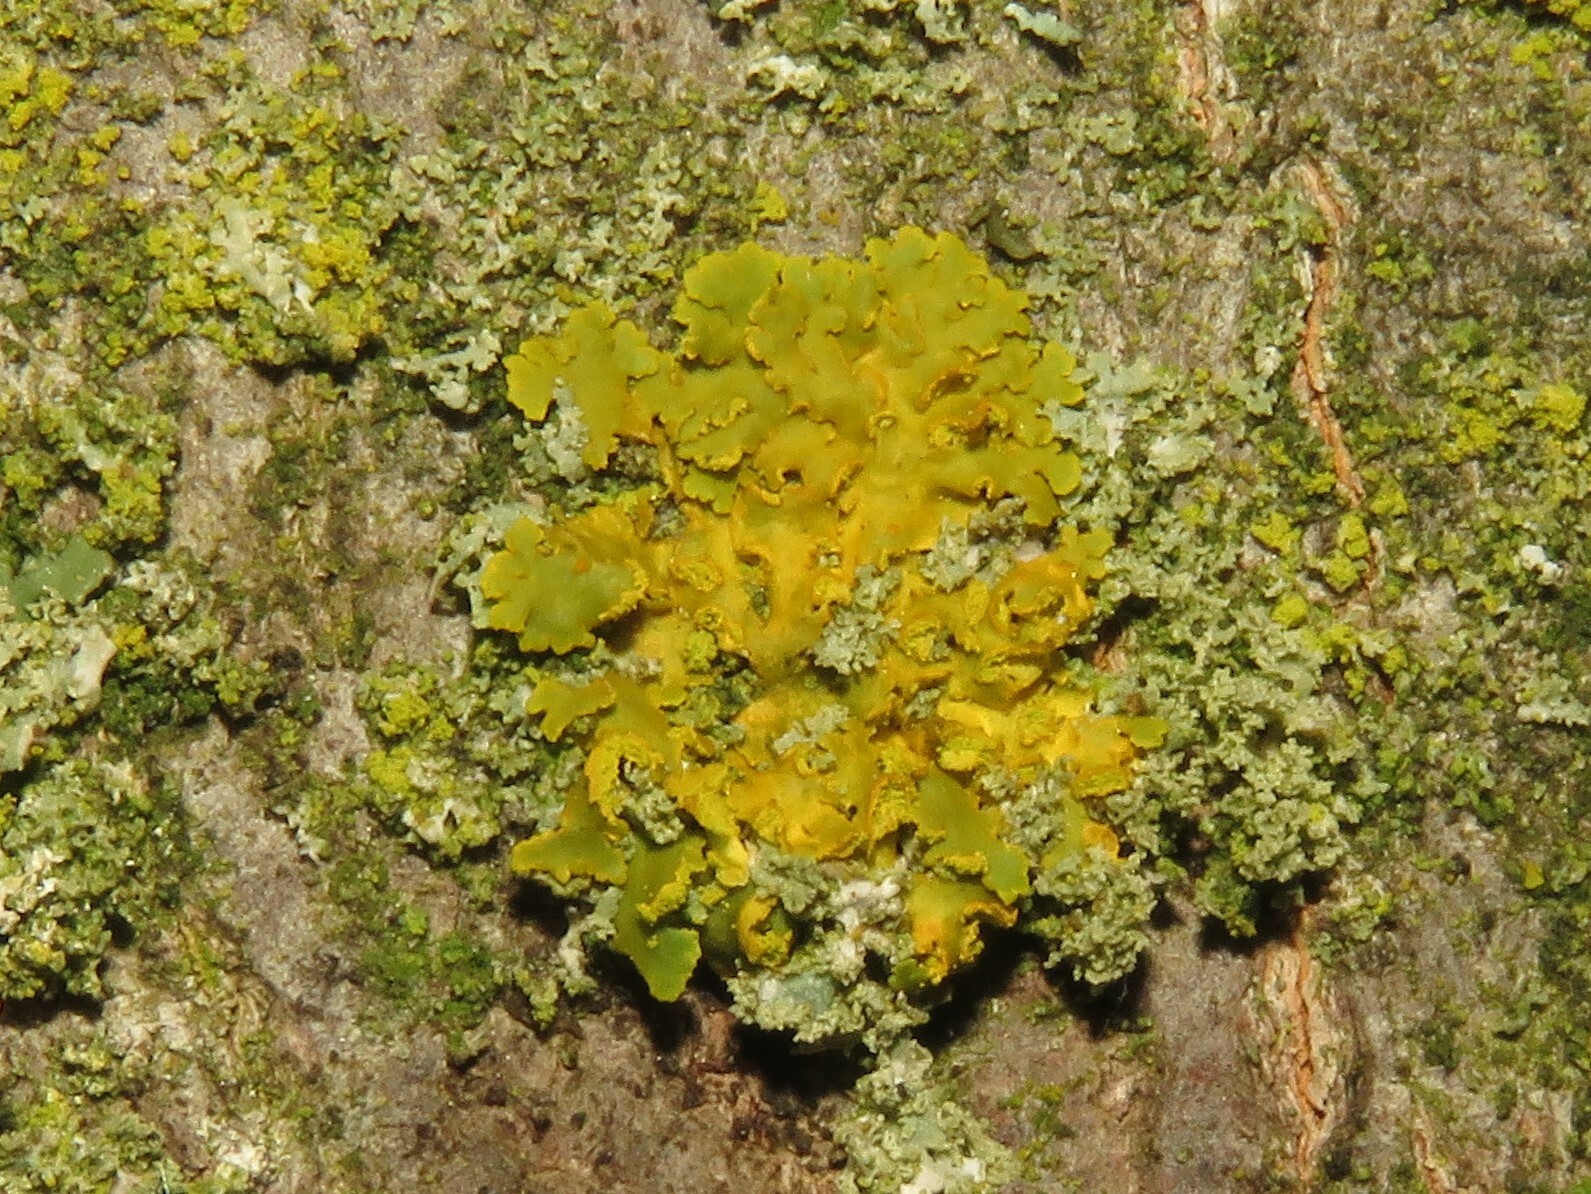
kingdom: Fungi
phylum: Ascomycota
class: Lecanoromycetes
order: Teloschistales
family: Teloschistaceae
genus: Oxneria
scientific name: Oxneria fallax
